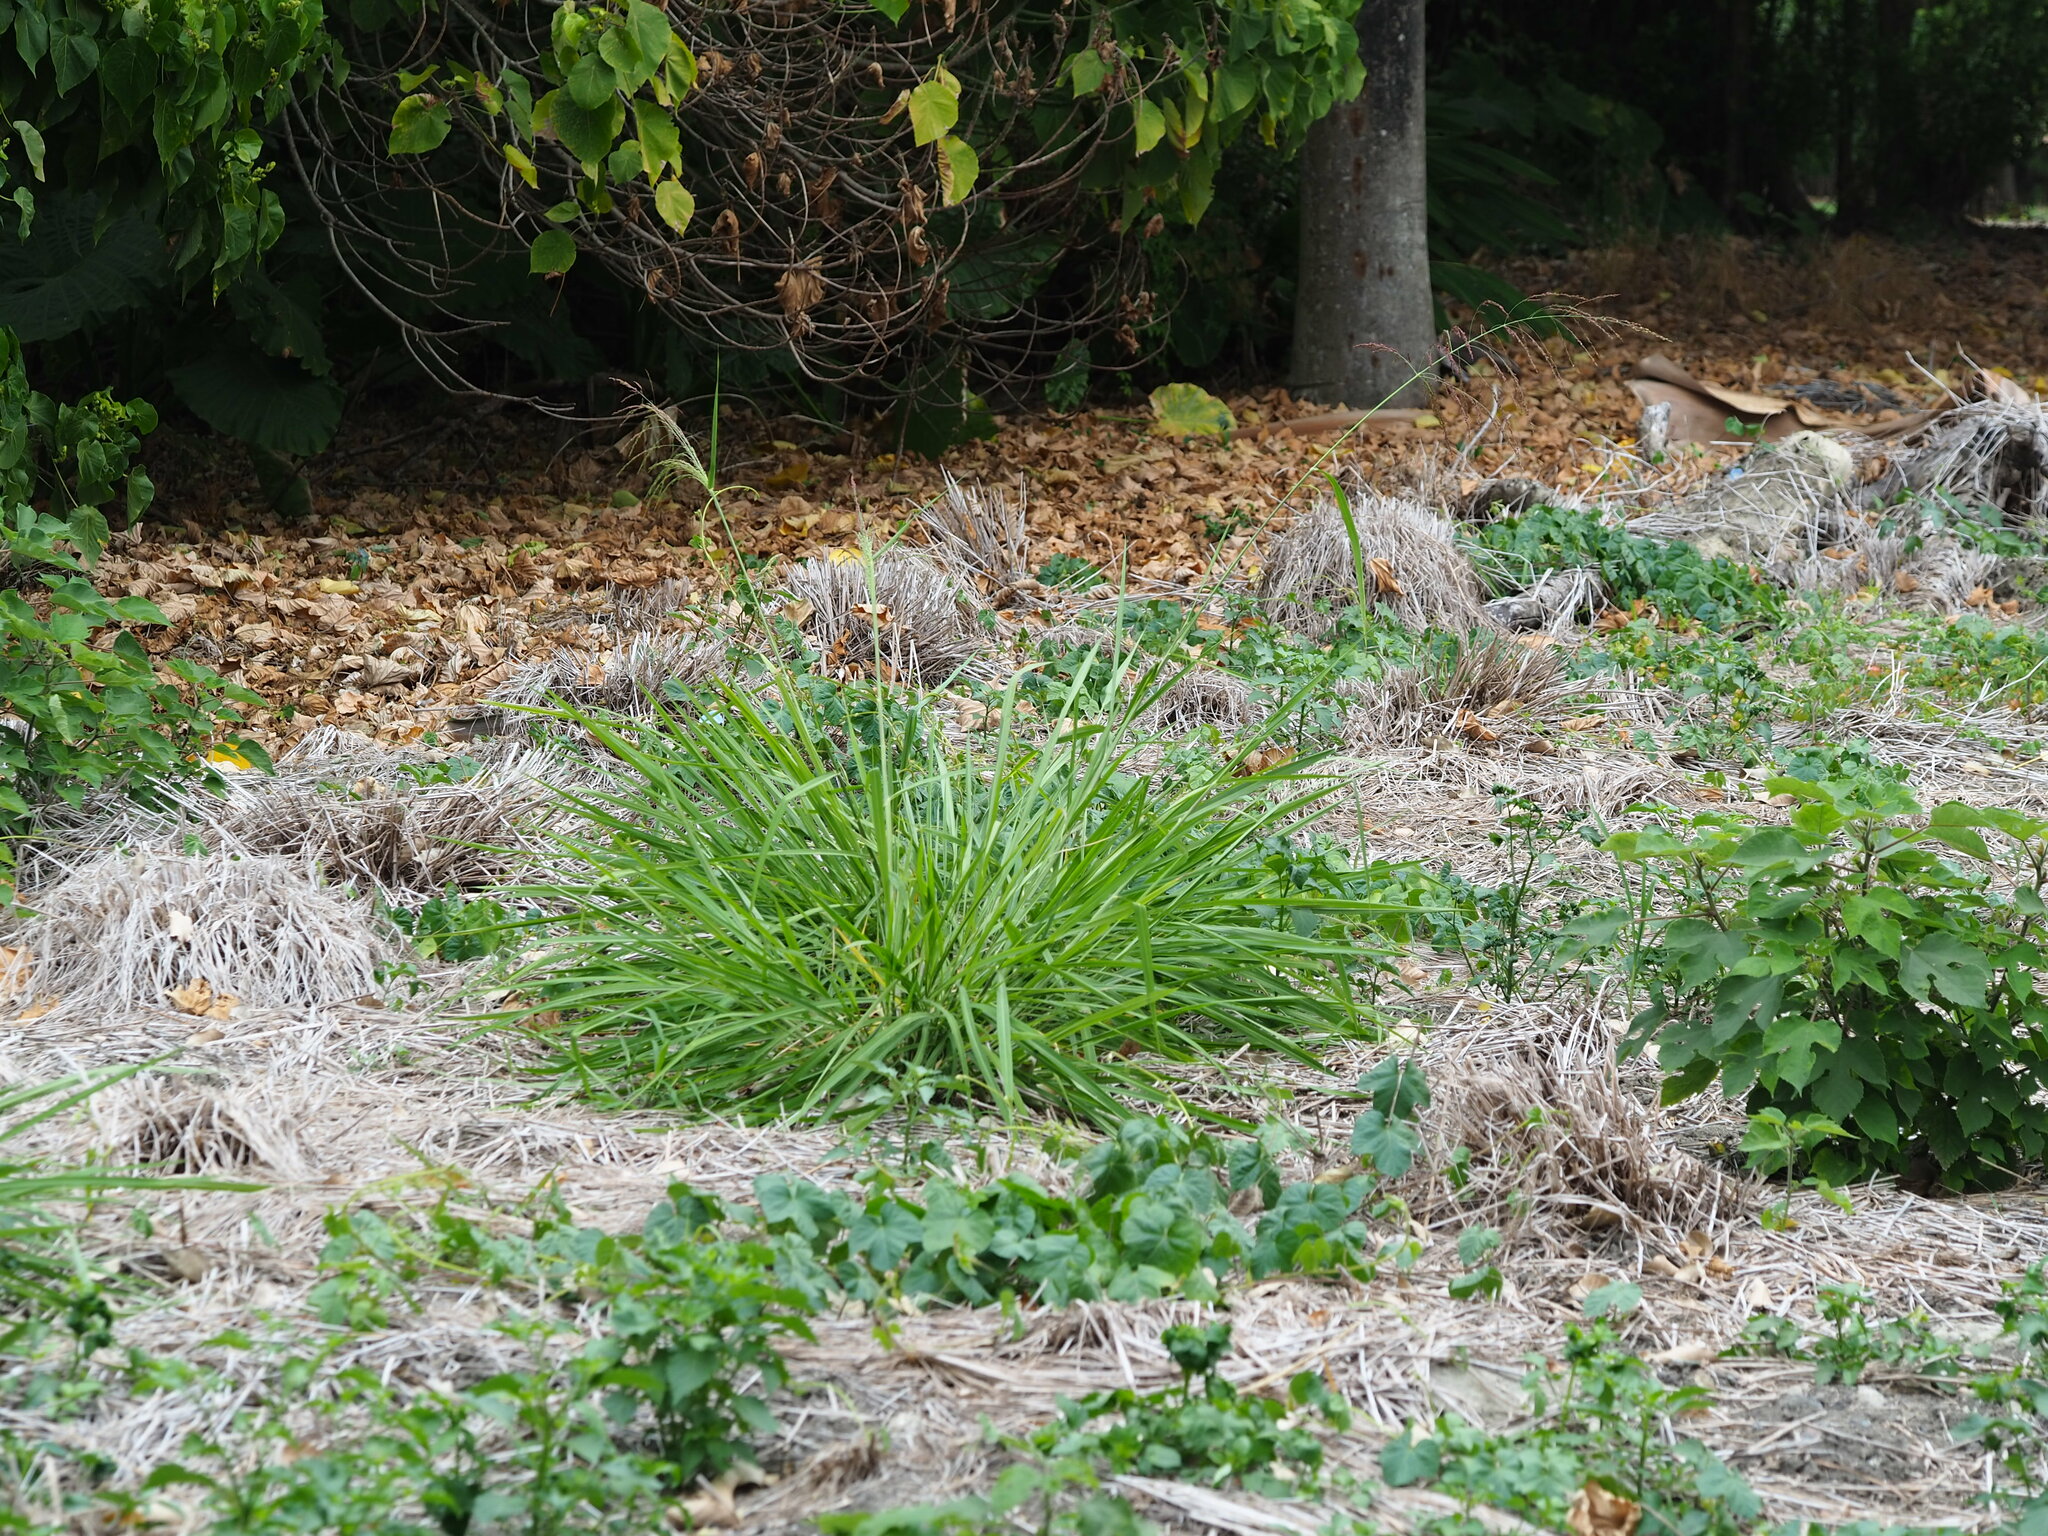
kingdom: Plantae
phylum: Tracheophyta
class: Liliopsida
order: Poales
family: Poaceae
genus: Megathyrsus
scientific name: Megathyrsus maximus
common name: Guineagrass
